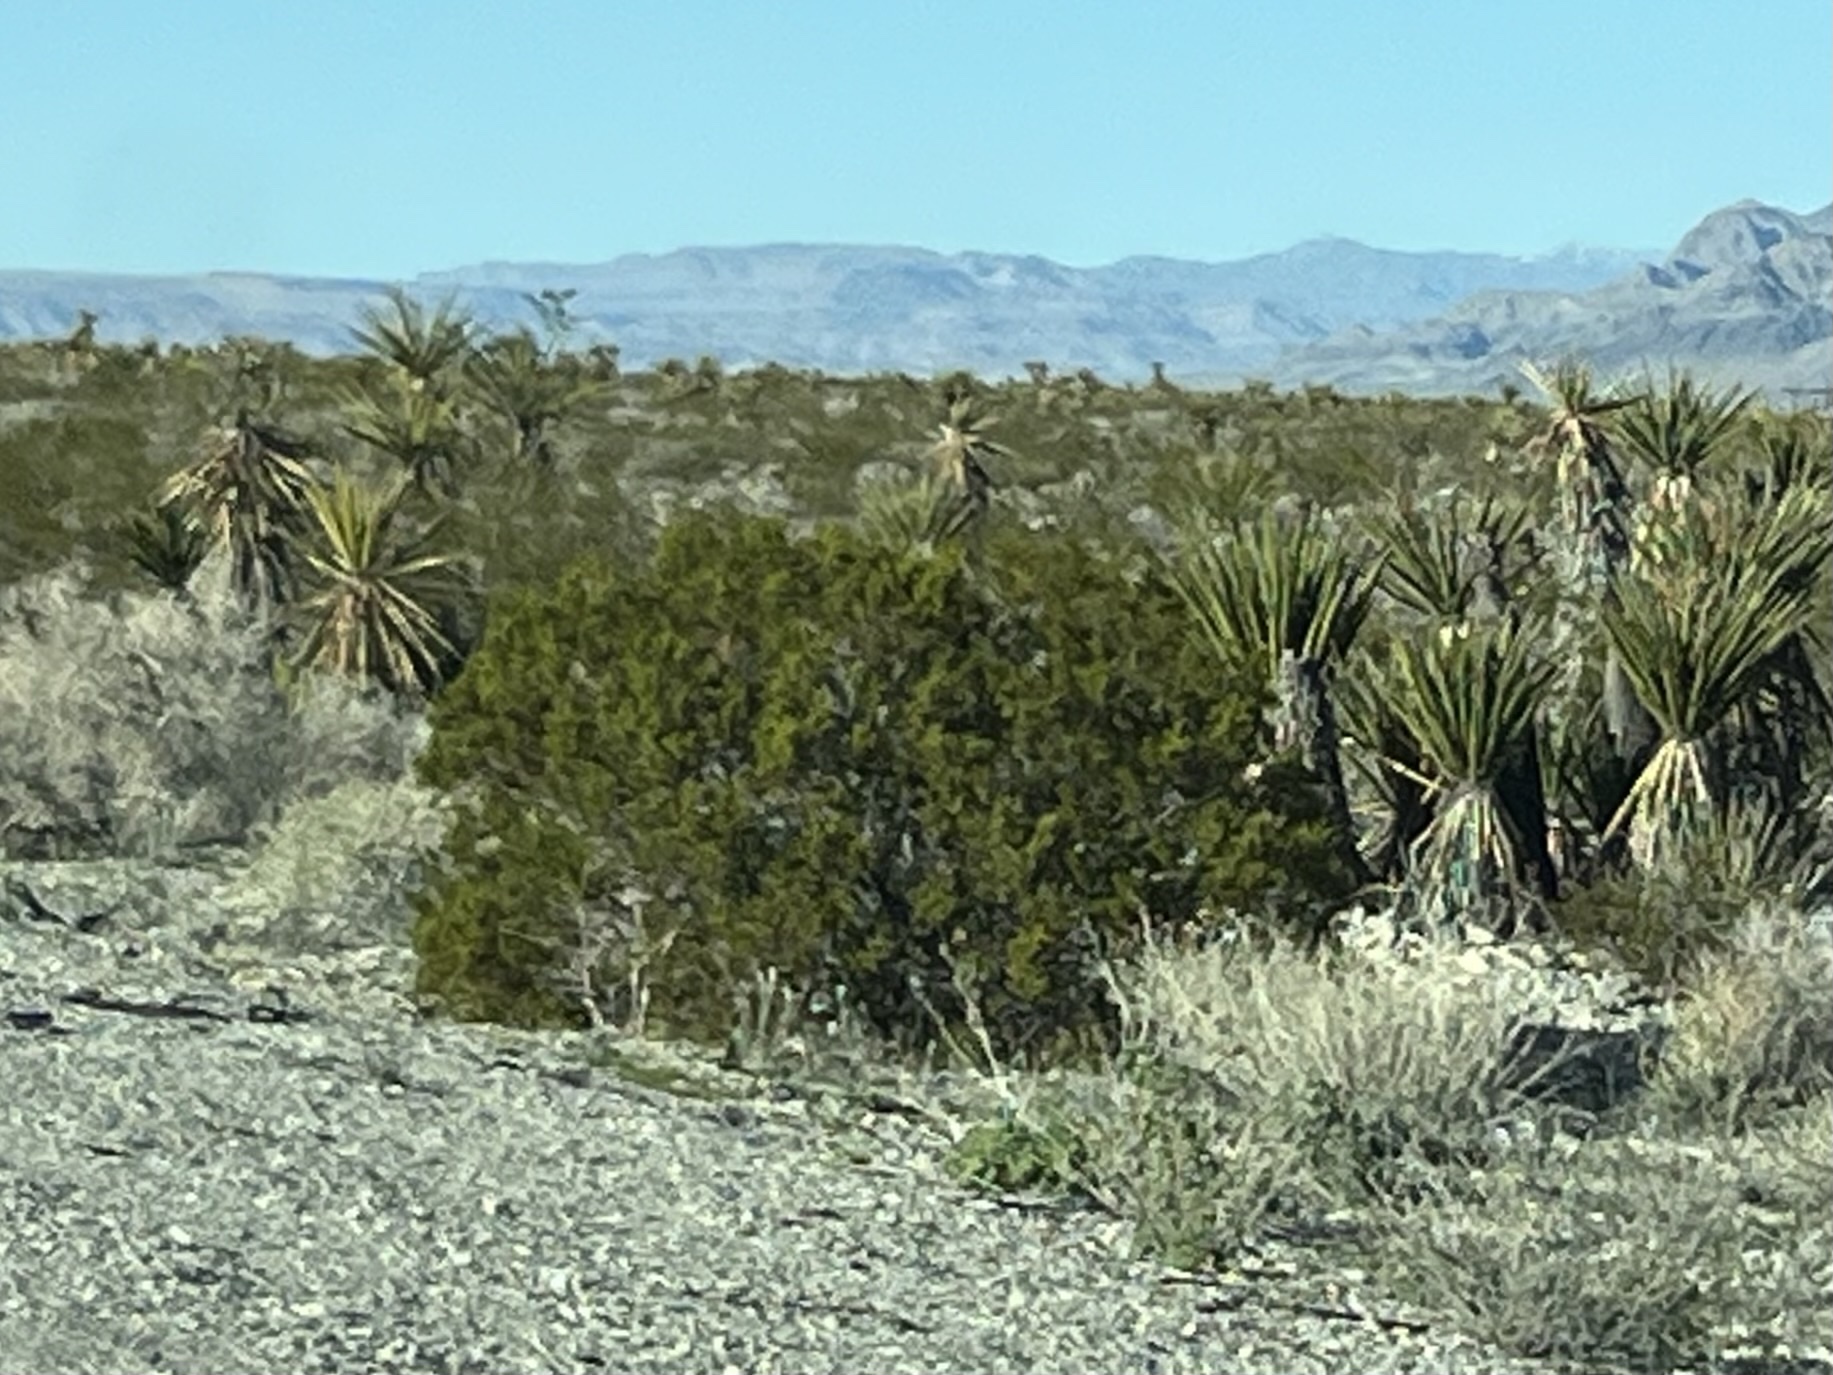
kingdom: Plantae
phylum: Tracheophyta
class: Magnoliopsida
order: Zygophyllales
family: Zygophyllaceae
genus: Larrea
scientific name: Larrea tridentata
